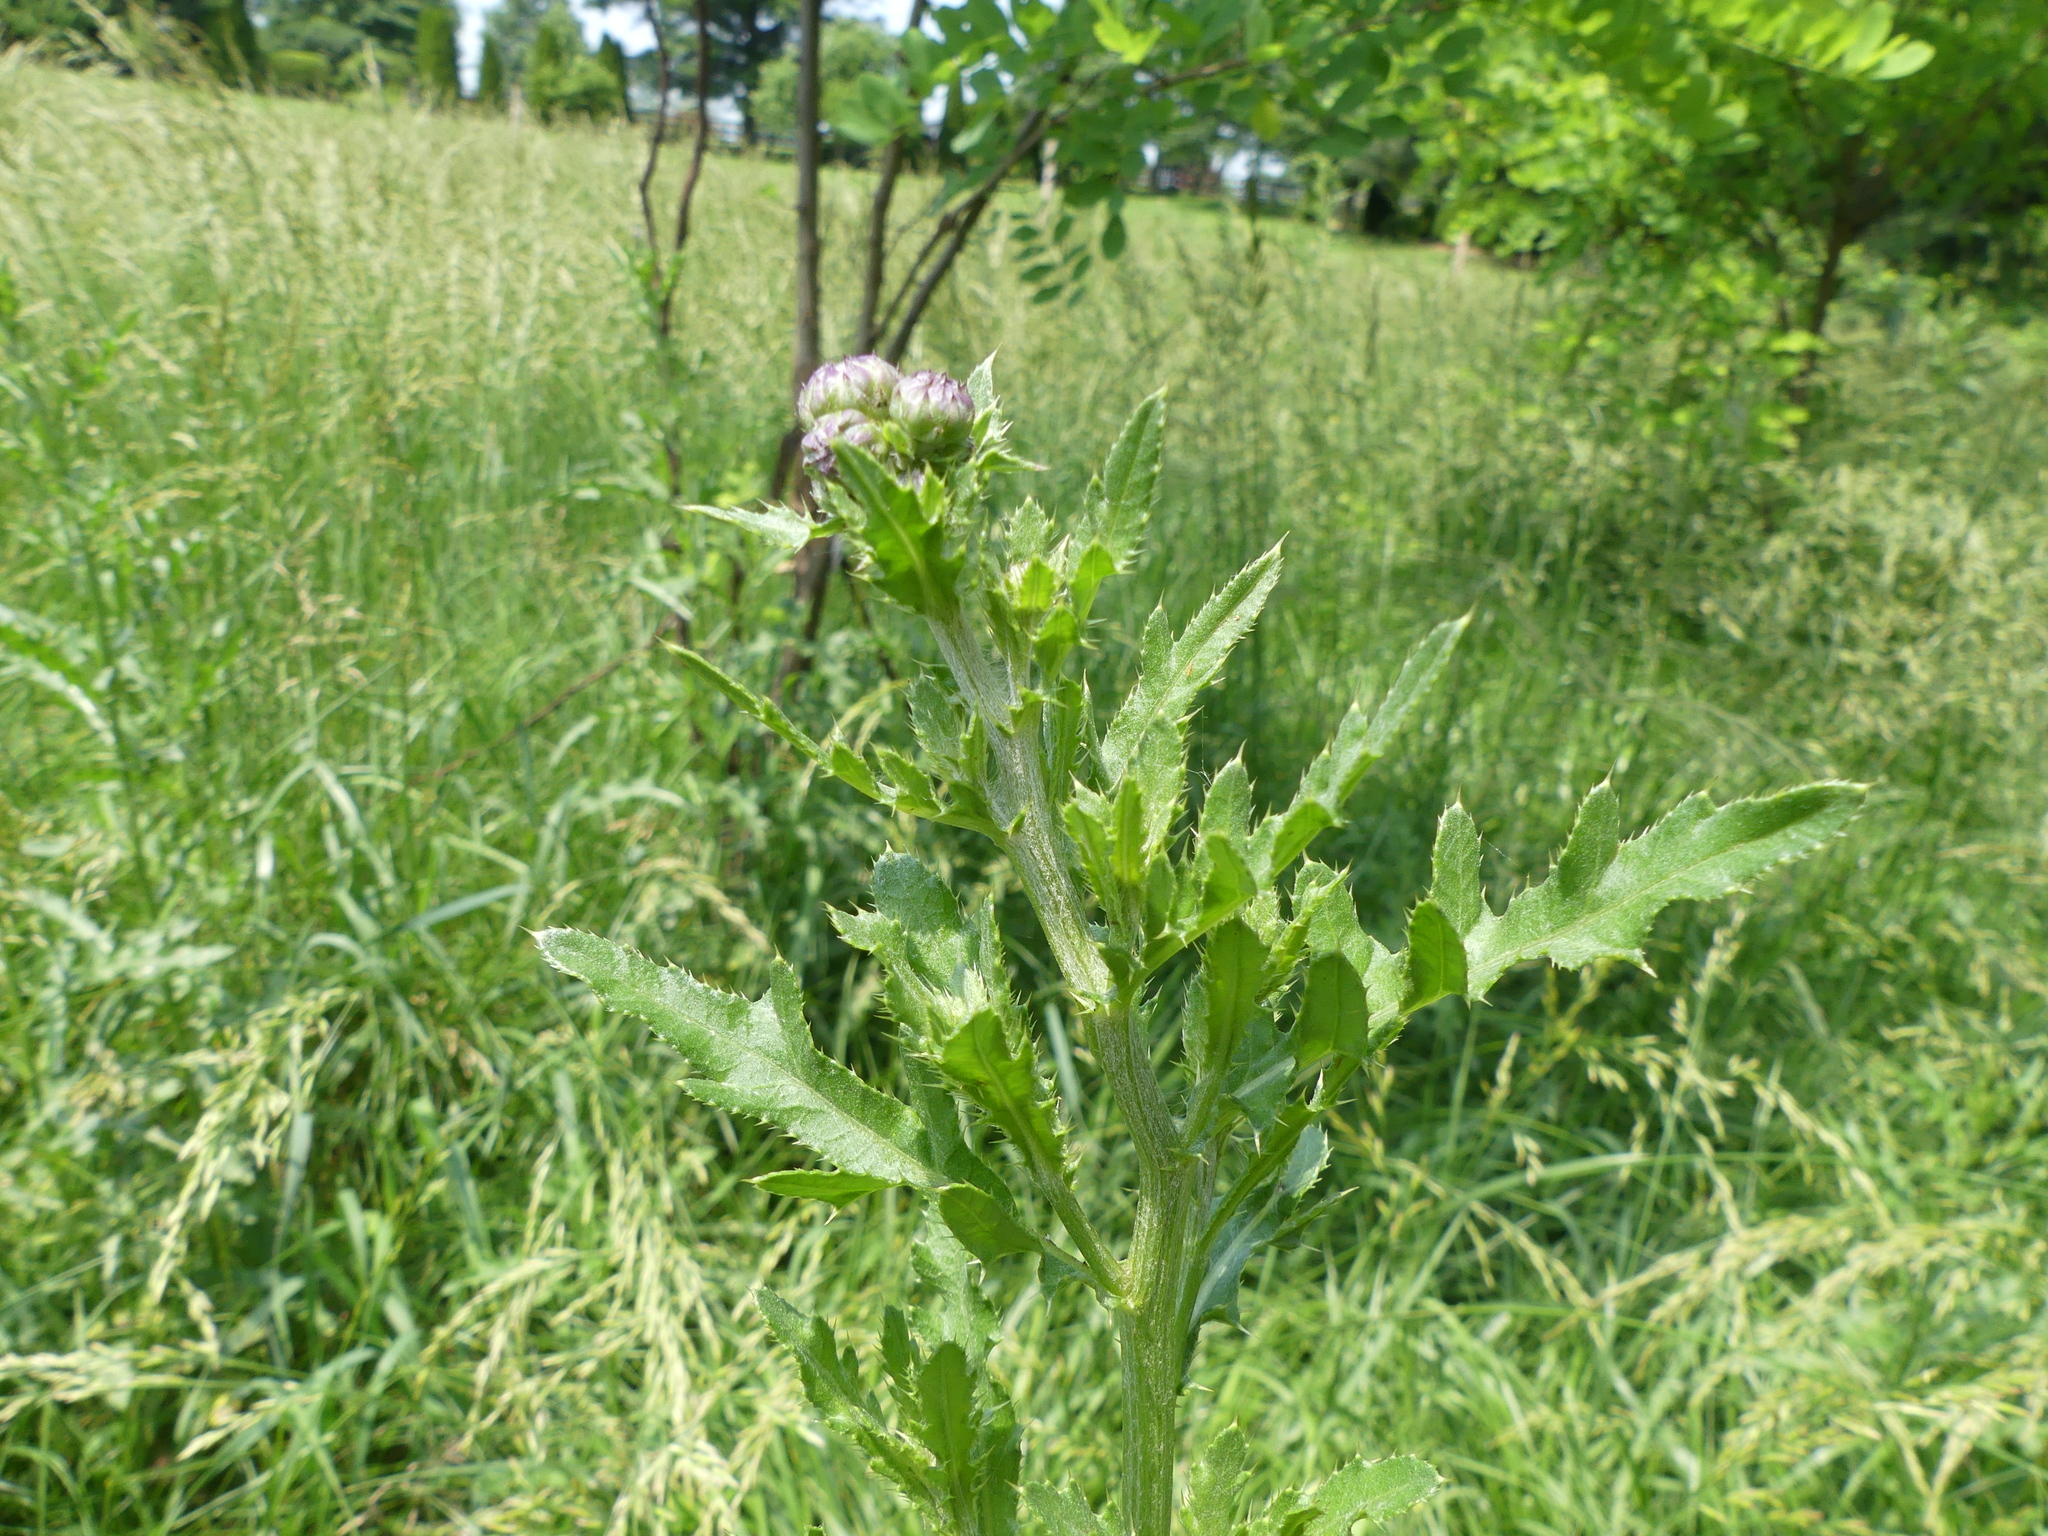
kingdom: Plantae
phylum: Tracheophyta
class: Magnoliopsida
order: Asterales
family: Asteraceae
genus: Cirsium
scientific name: Cirsium arvense
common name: Creeping thistle
